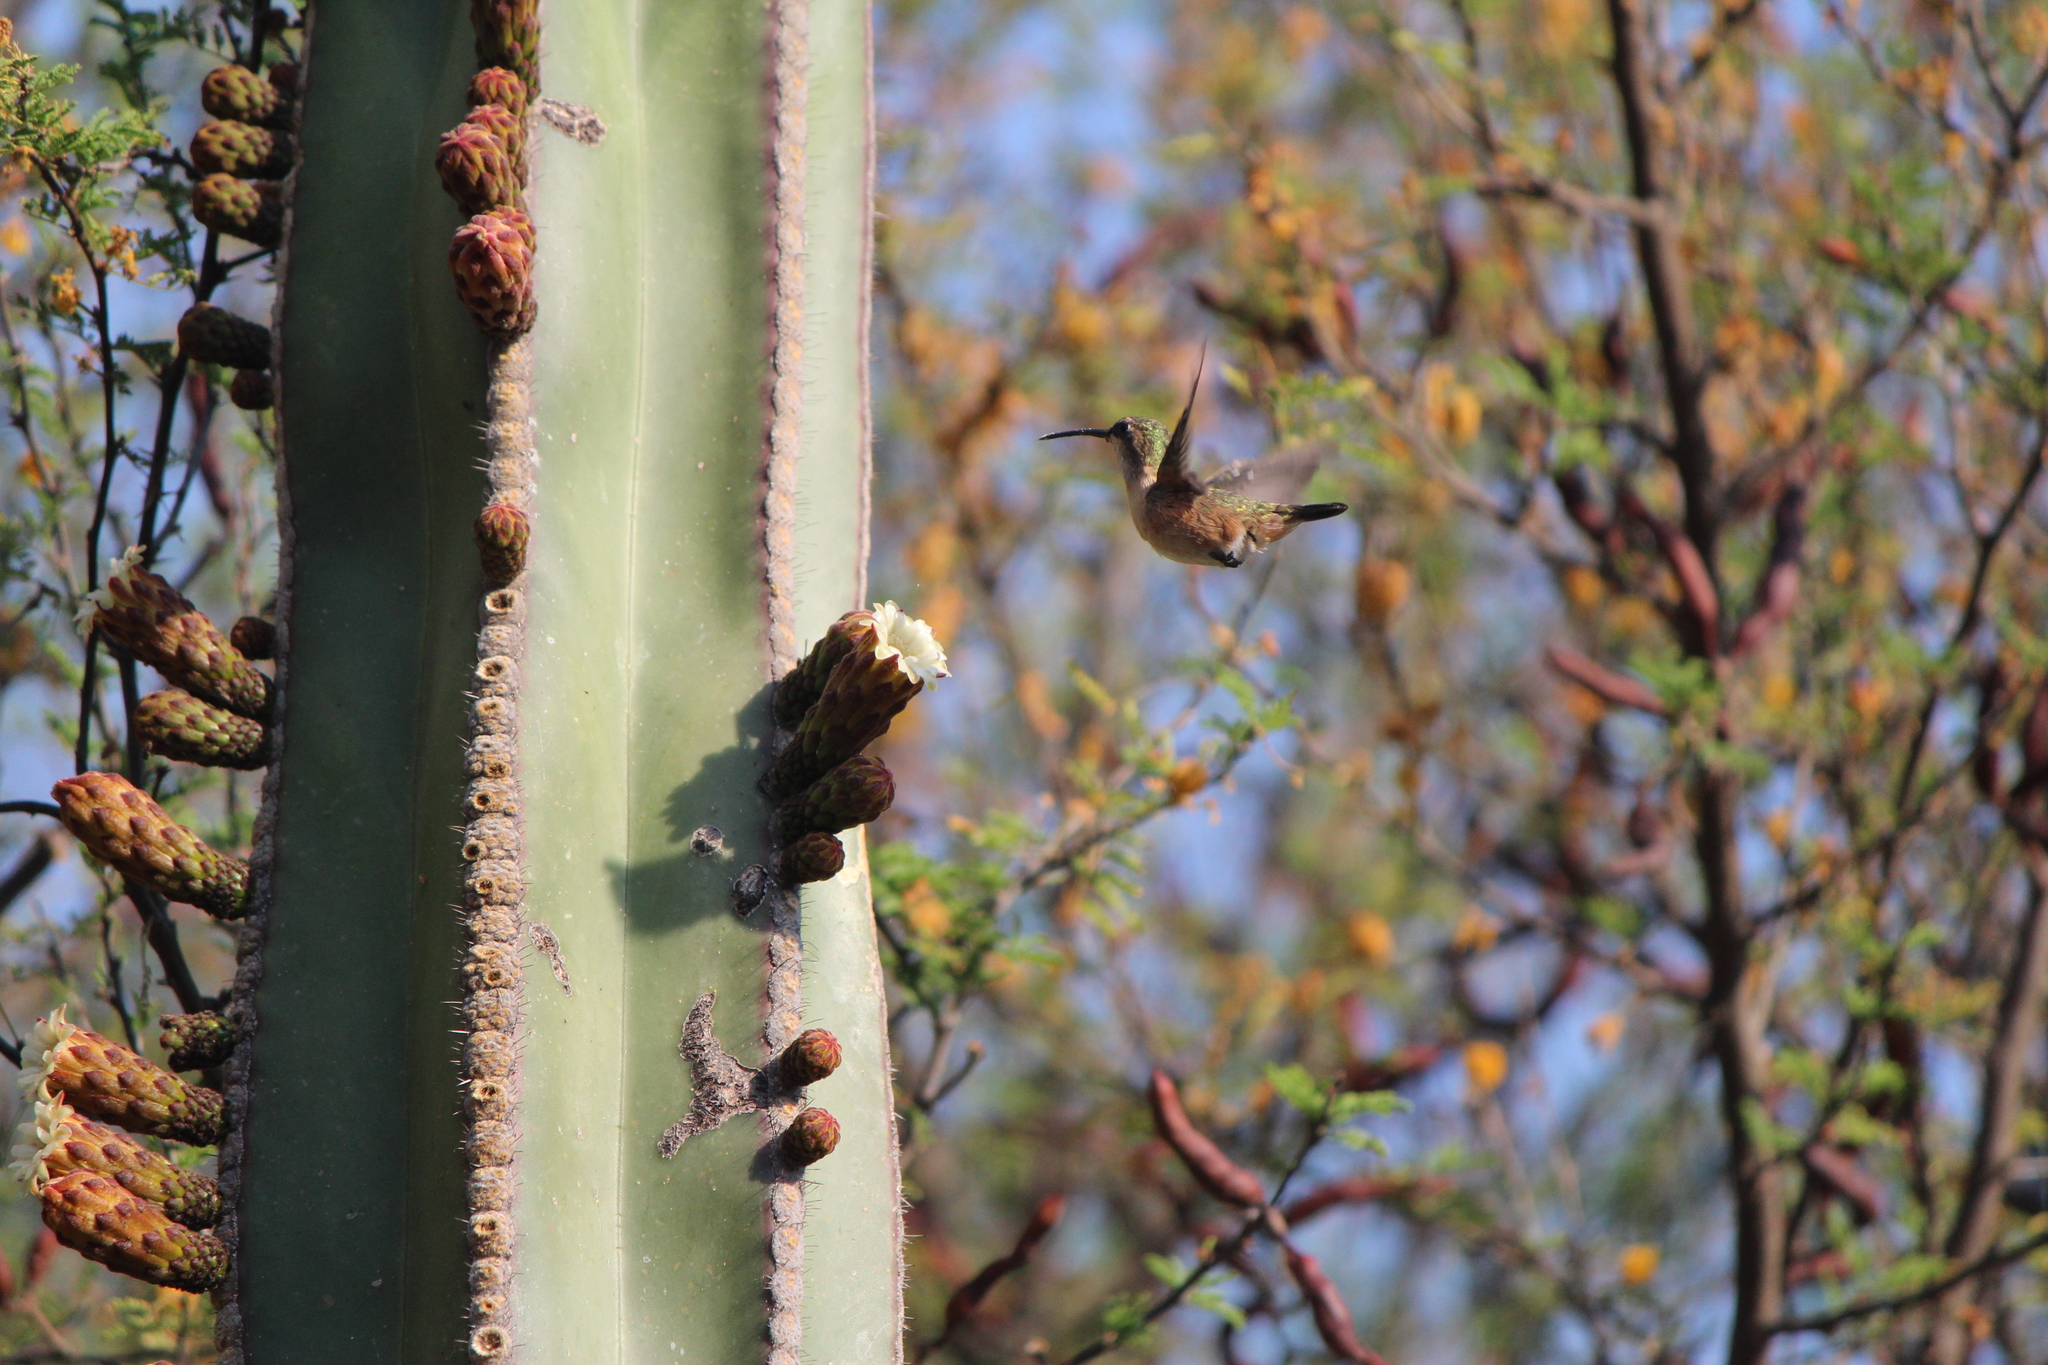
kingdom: Animalia
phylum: Chordata
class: Aves
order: Apodiformes
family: Trochilidae
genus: Calothorax
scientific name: Calothorax lucifer
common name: Lucifer sheartail
